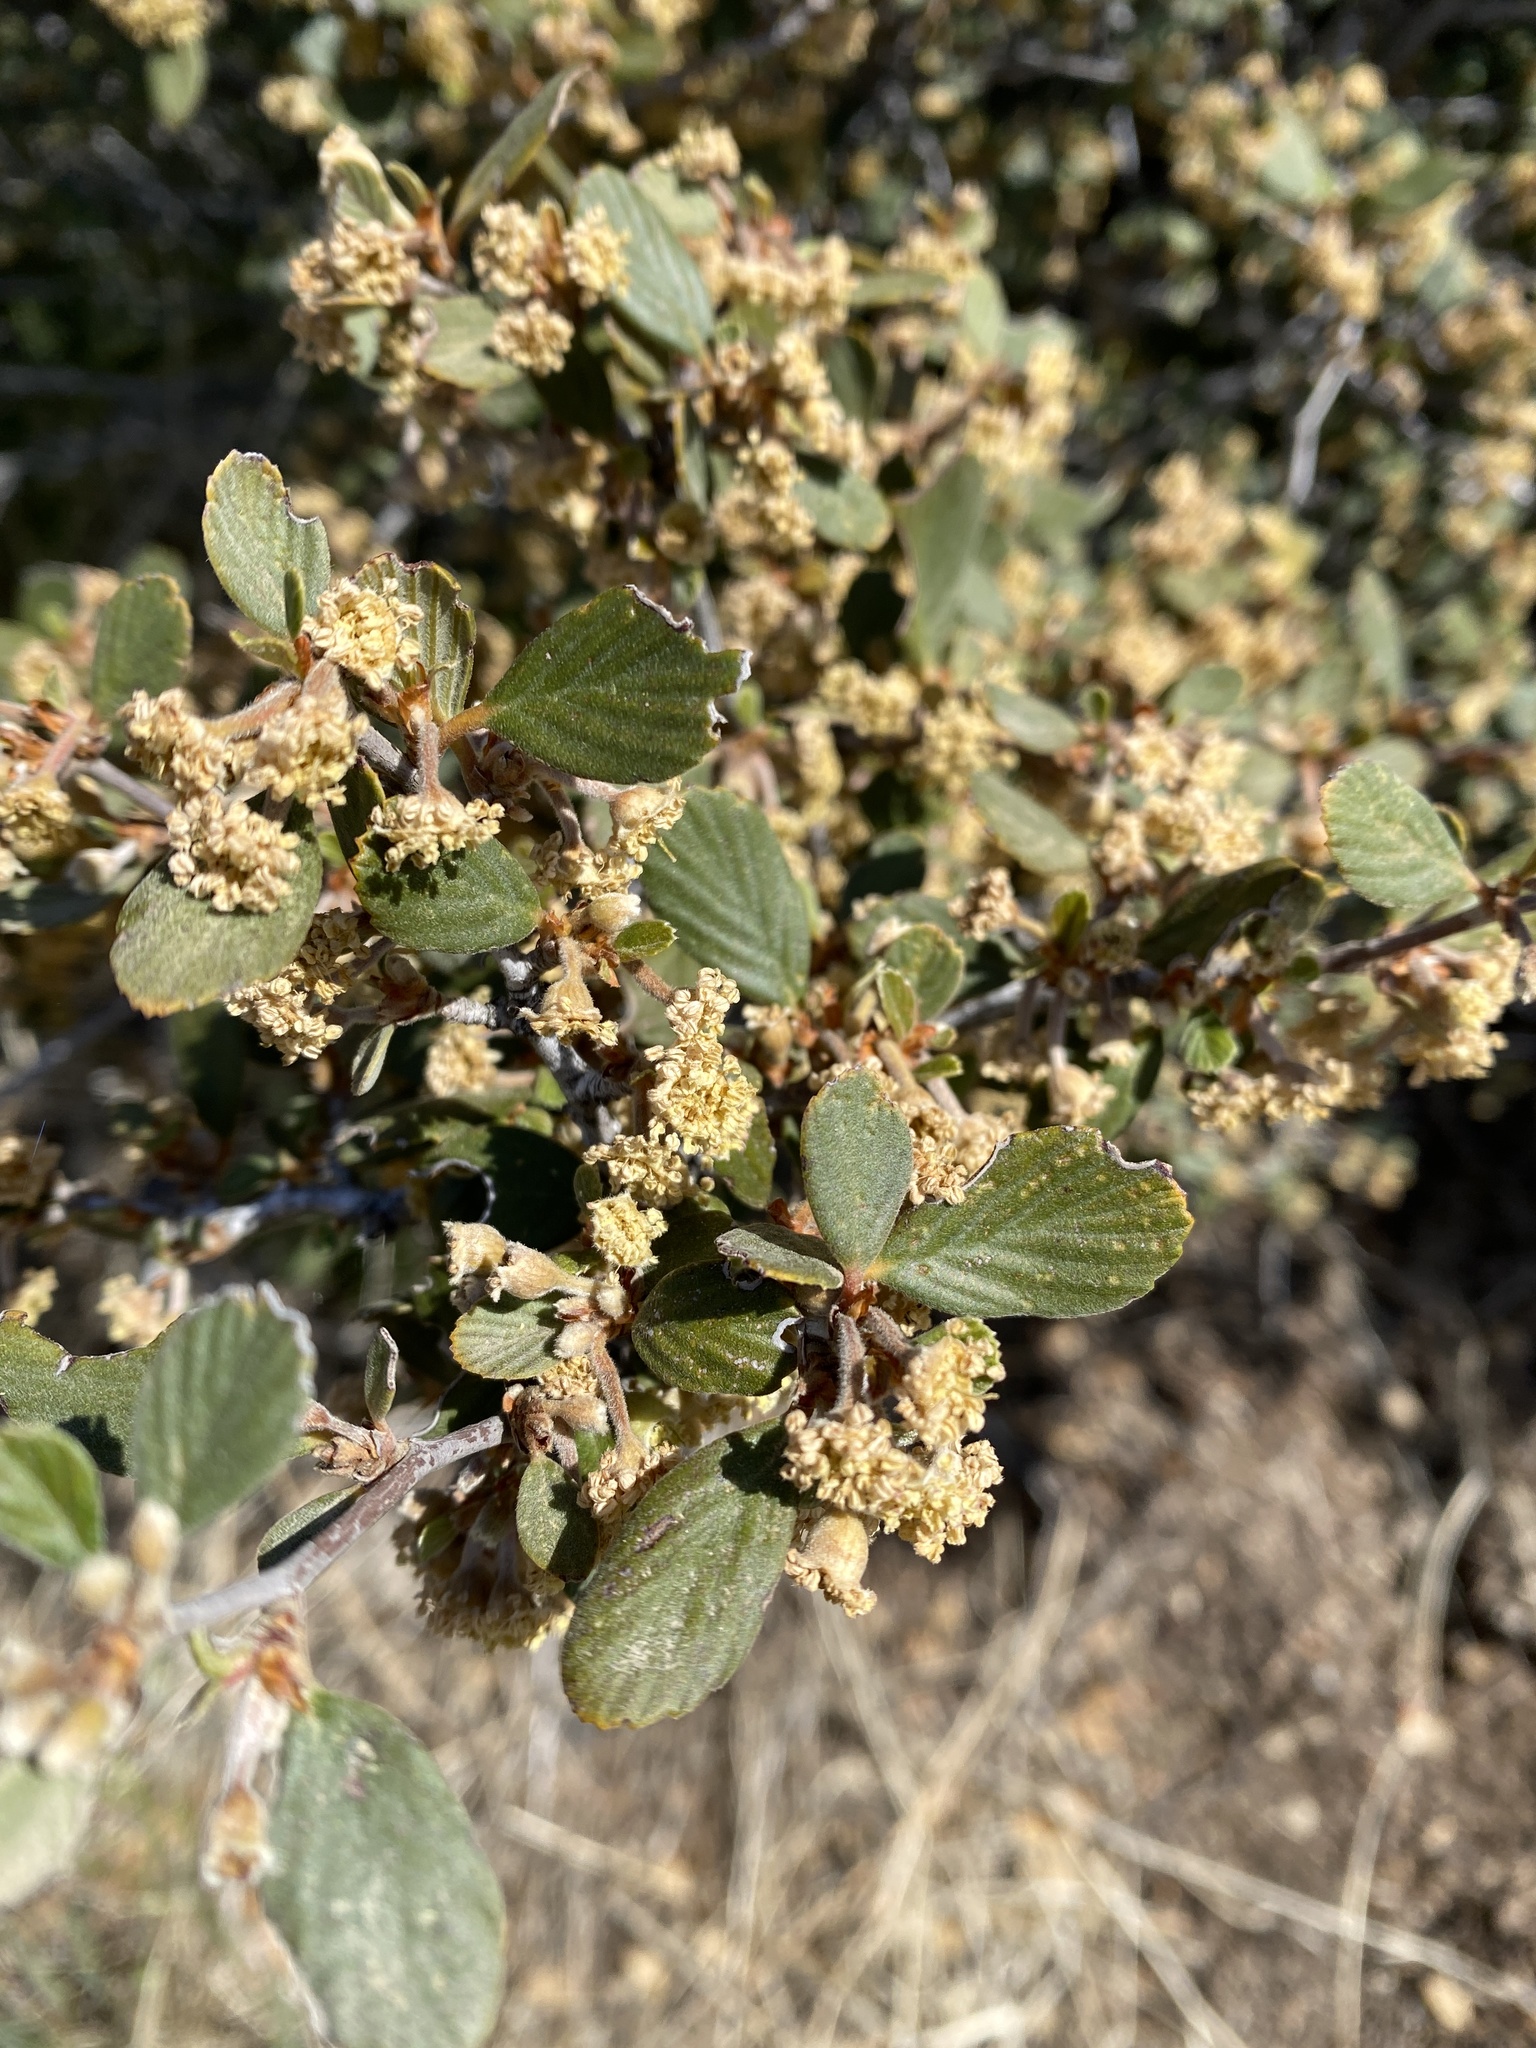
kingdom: Plantae
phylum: Tracheophyta
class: Magnoliopsida
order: Rosales
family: Rosaceae
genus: Cercocarpus
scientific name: Cercocarpus betuloides
